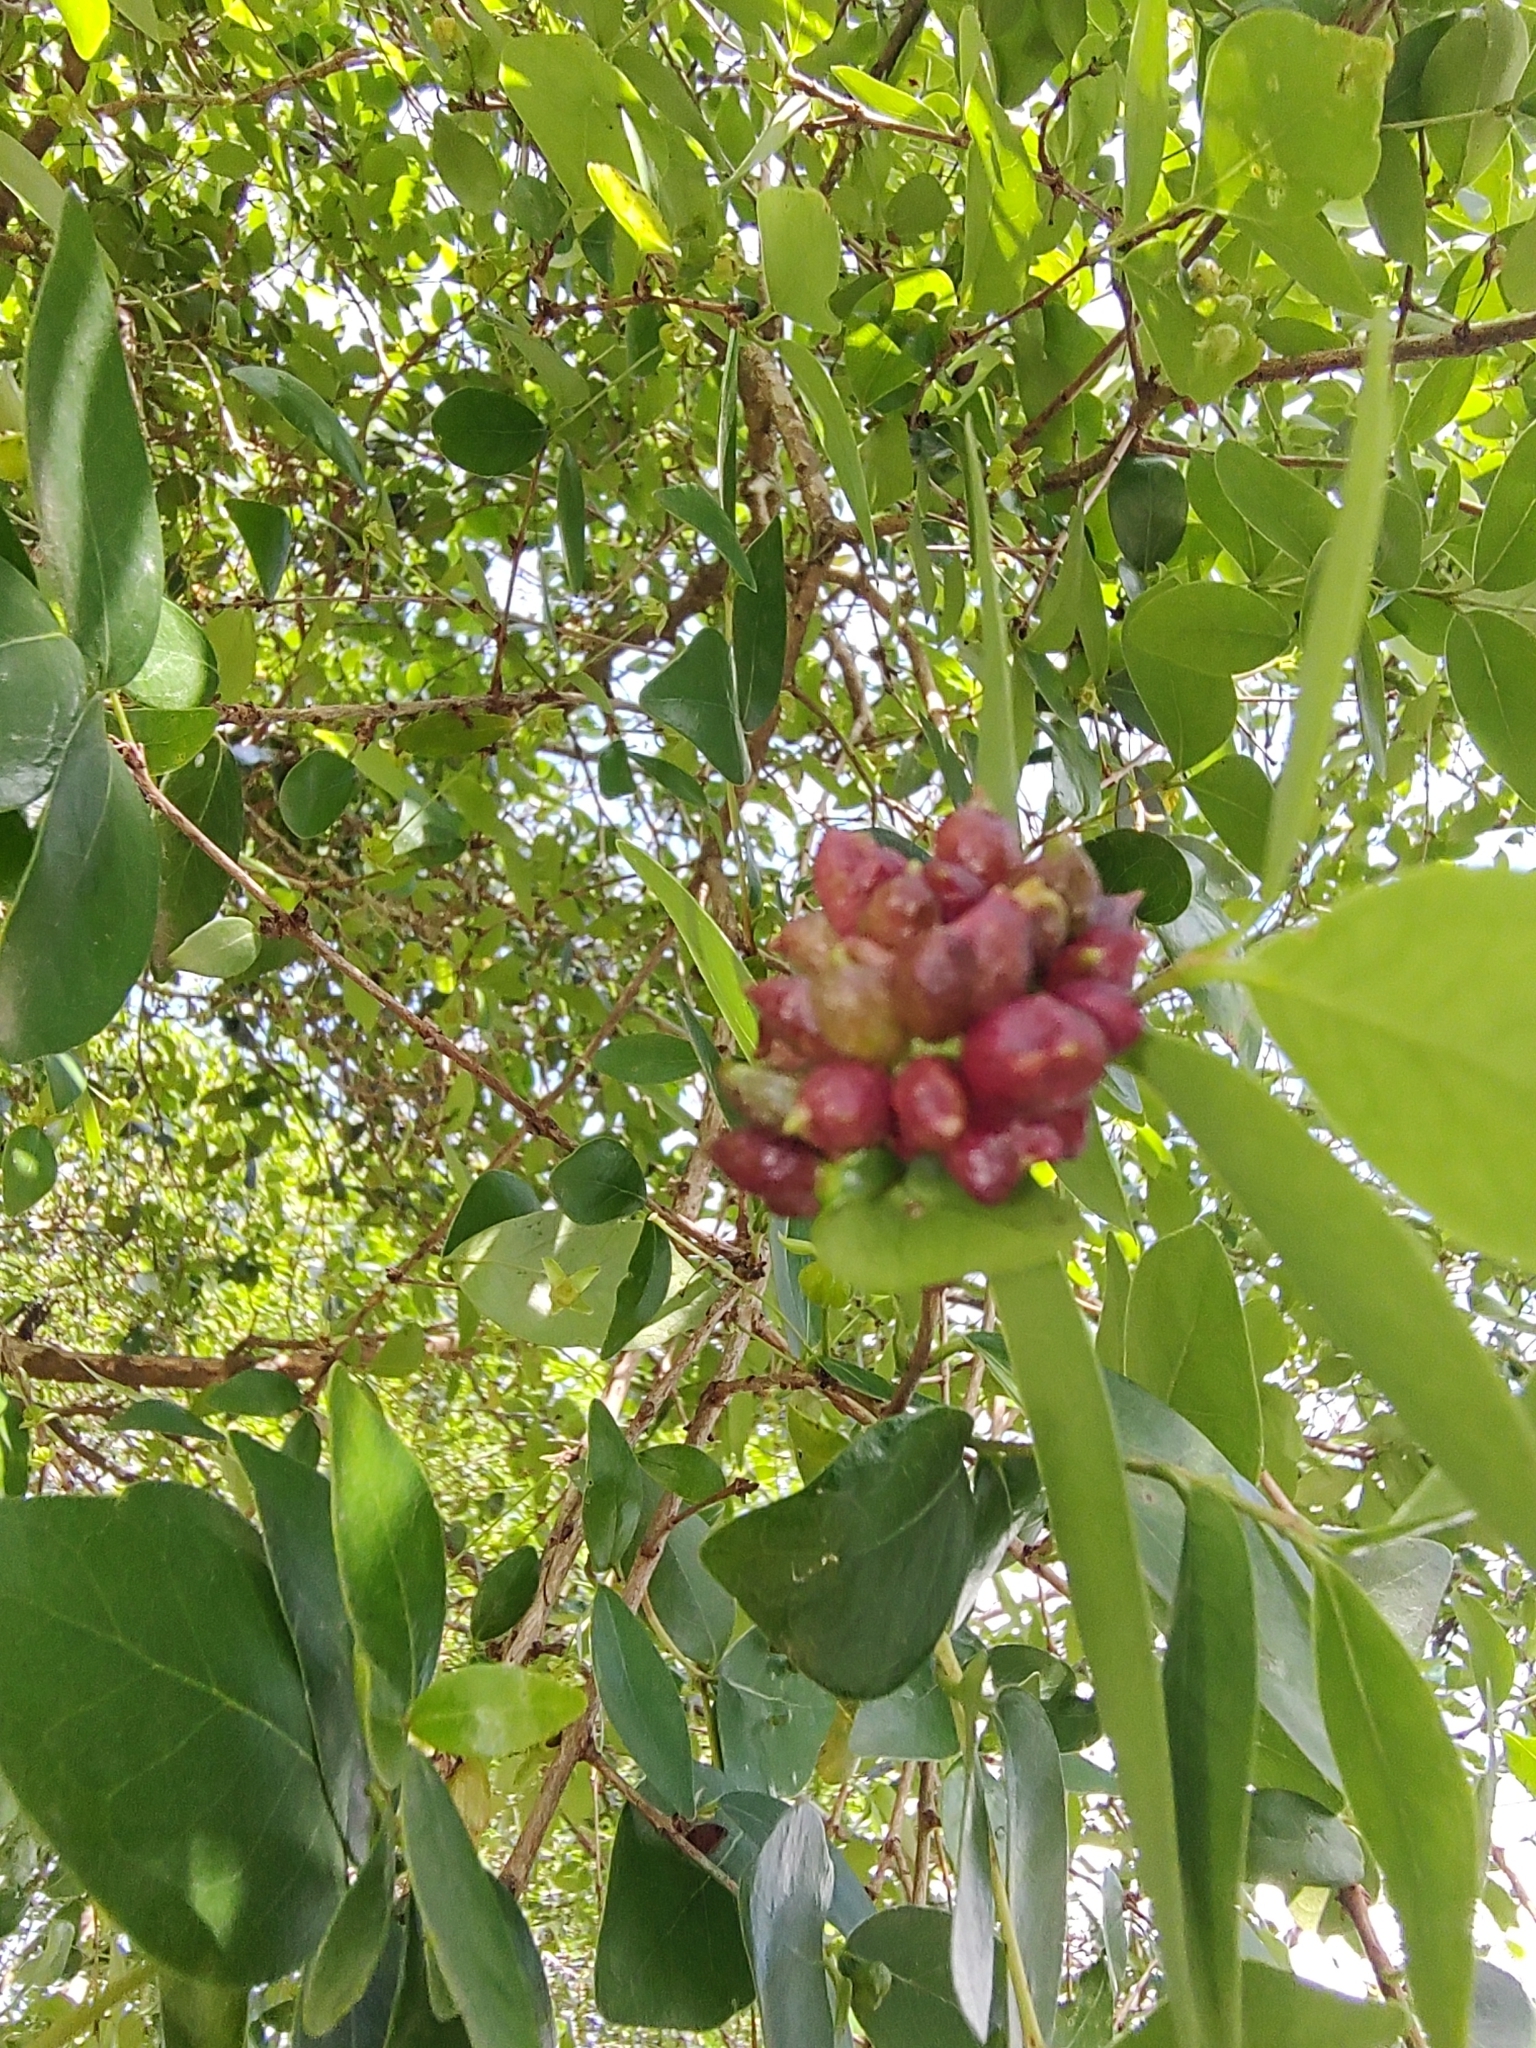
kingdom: Animalia
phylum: Arthropoda
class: Insecta
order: Diptera
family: Cecidomyiidae
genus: Clinodiplosis
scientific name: Clinodiplosis profusa
